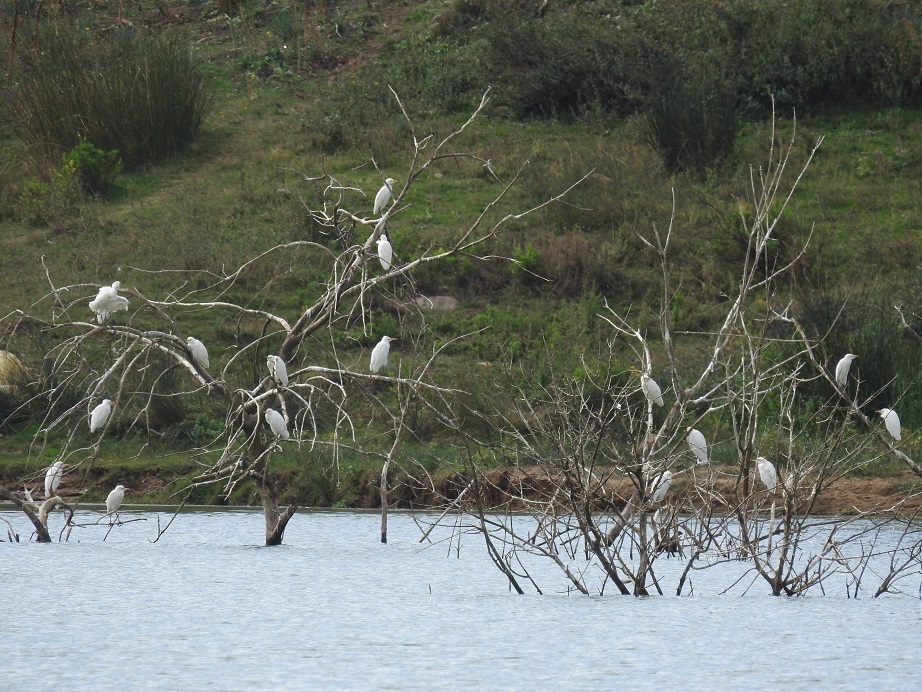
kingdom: Animalia
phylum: Chordata
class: Aves
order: Pelecaniformes
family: Ardeidae
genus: Bubulcus
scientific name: Bubulcus ibis
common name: Cattle egret
